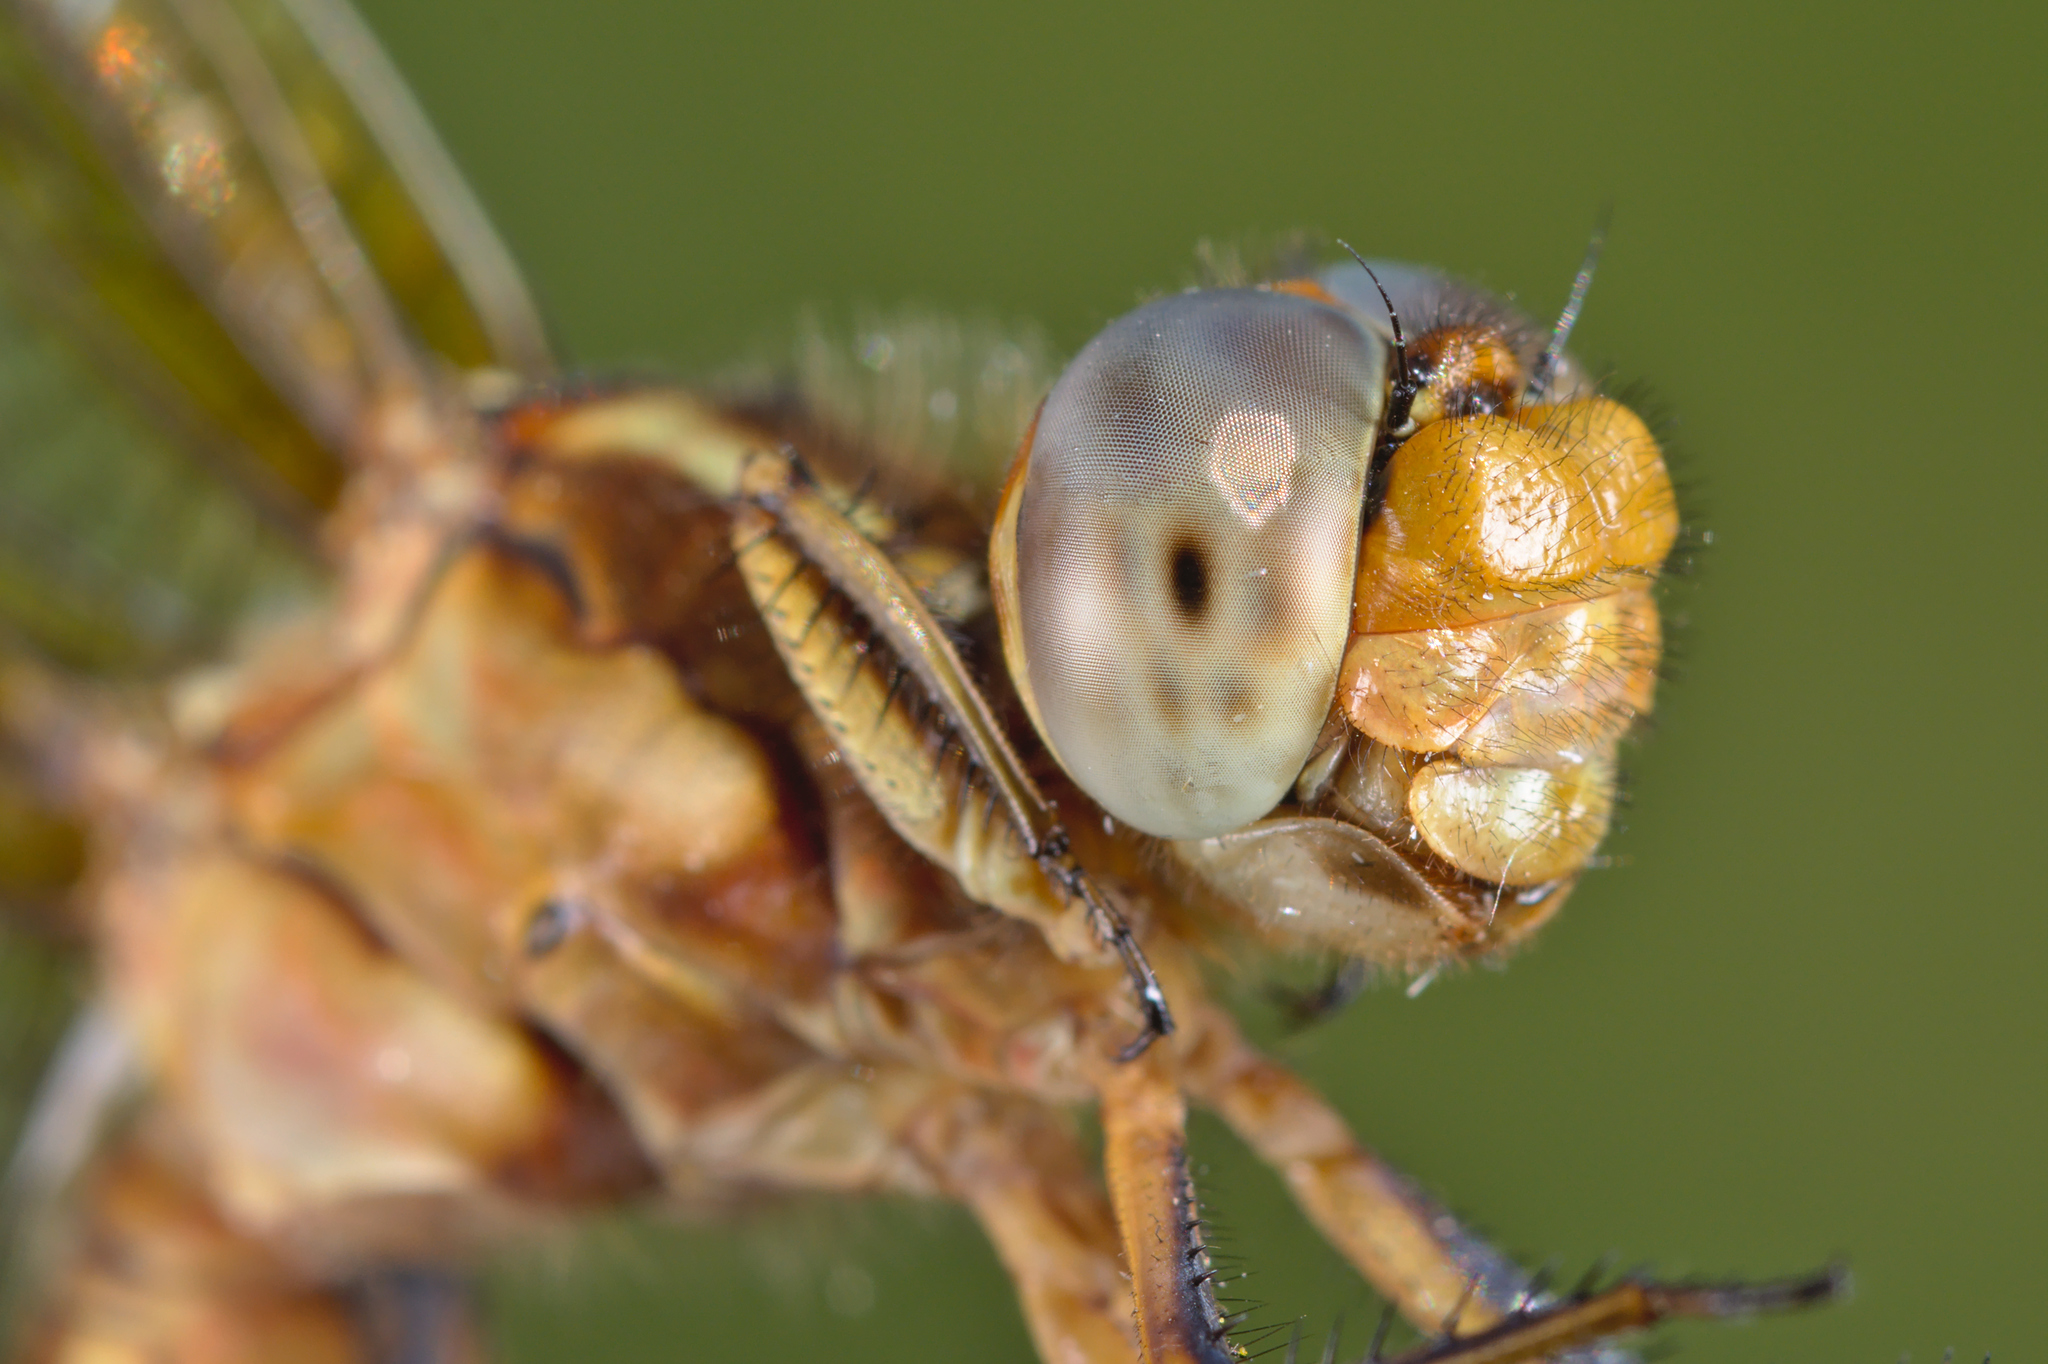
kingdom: Animalia
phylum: Arthropoda
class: Insecta
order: Odonata
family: Libellulidae
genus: Orthetrum
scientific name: Orthetrum coerulescens
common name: Keeled skimmer
